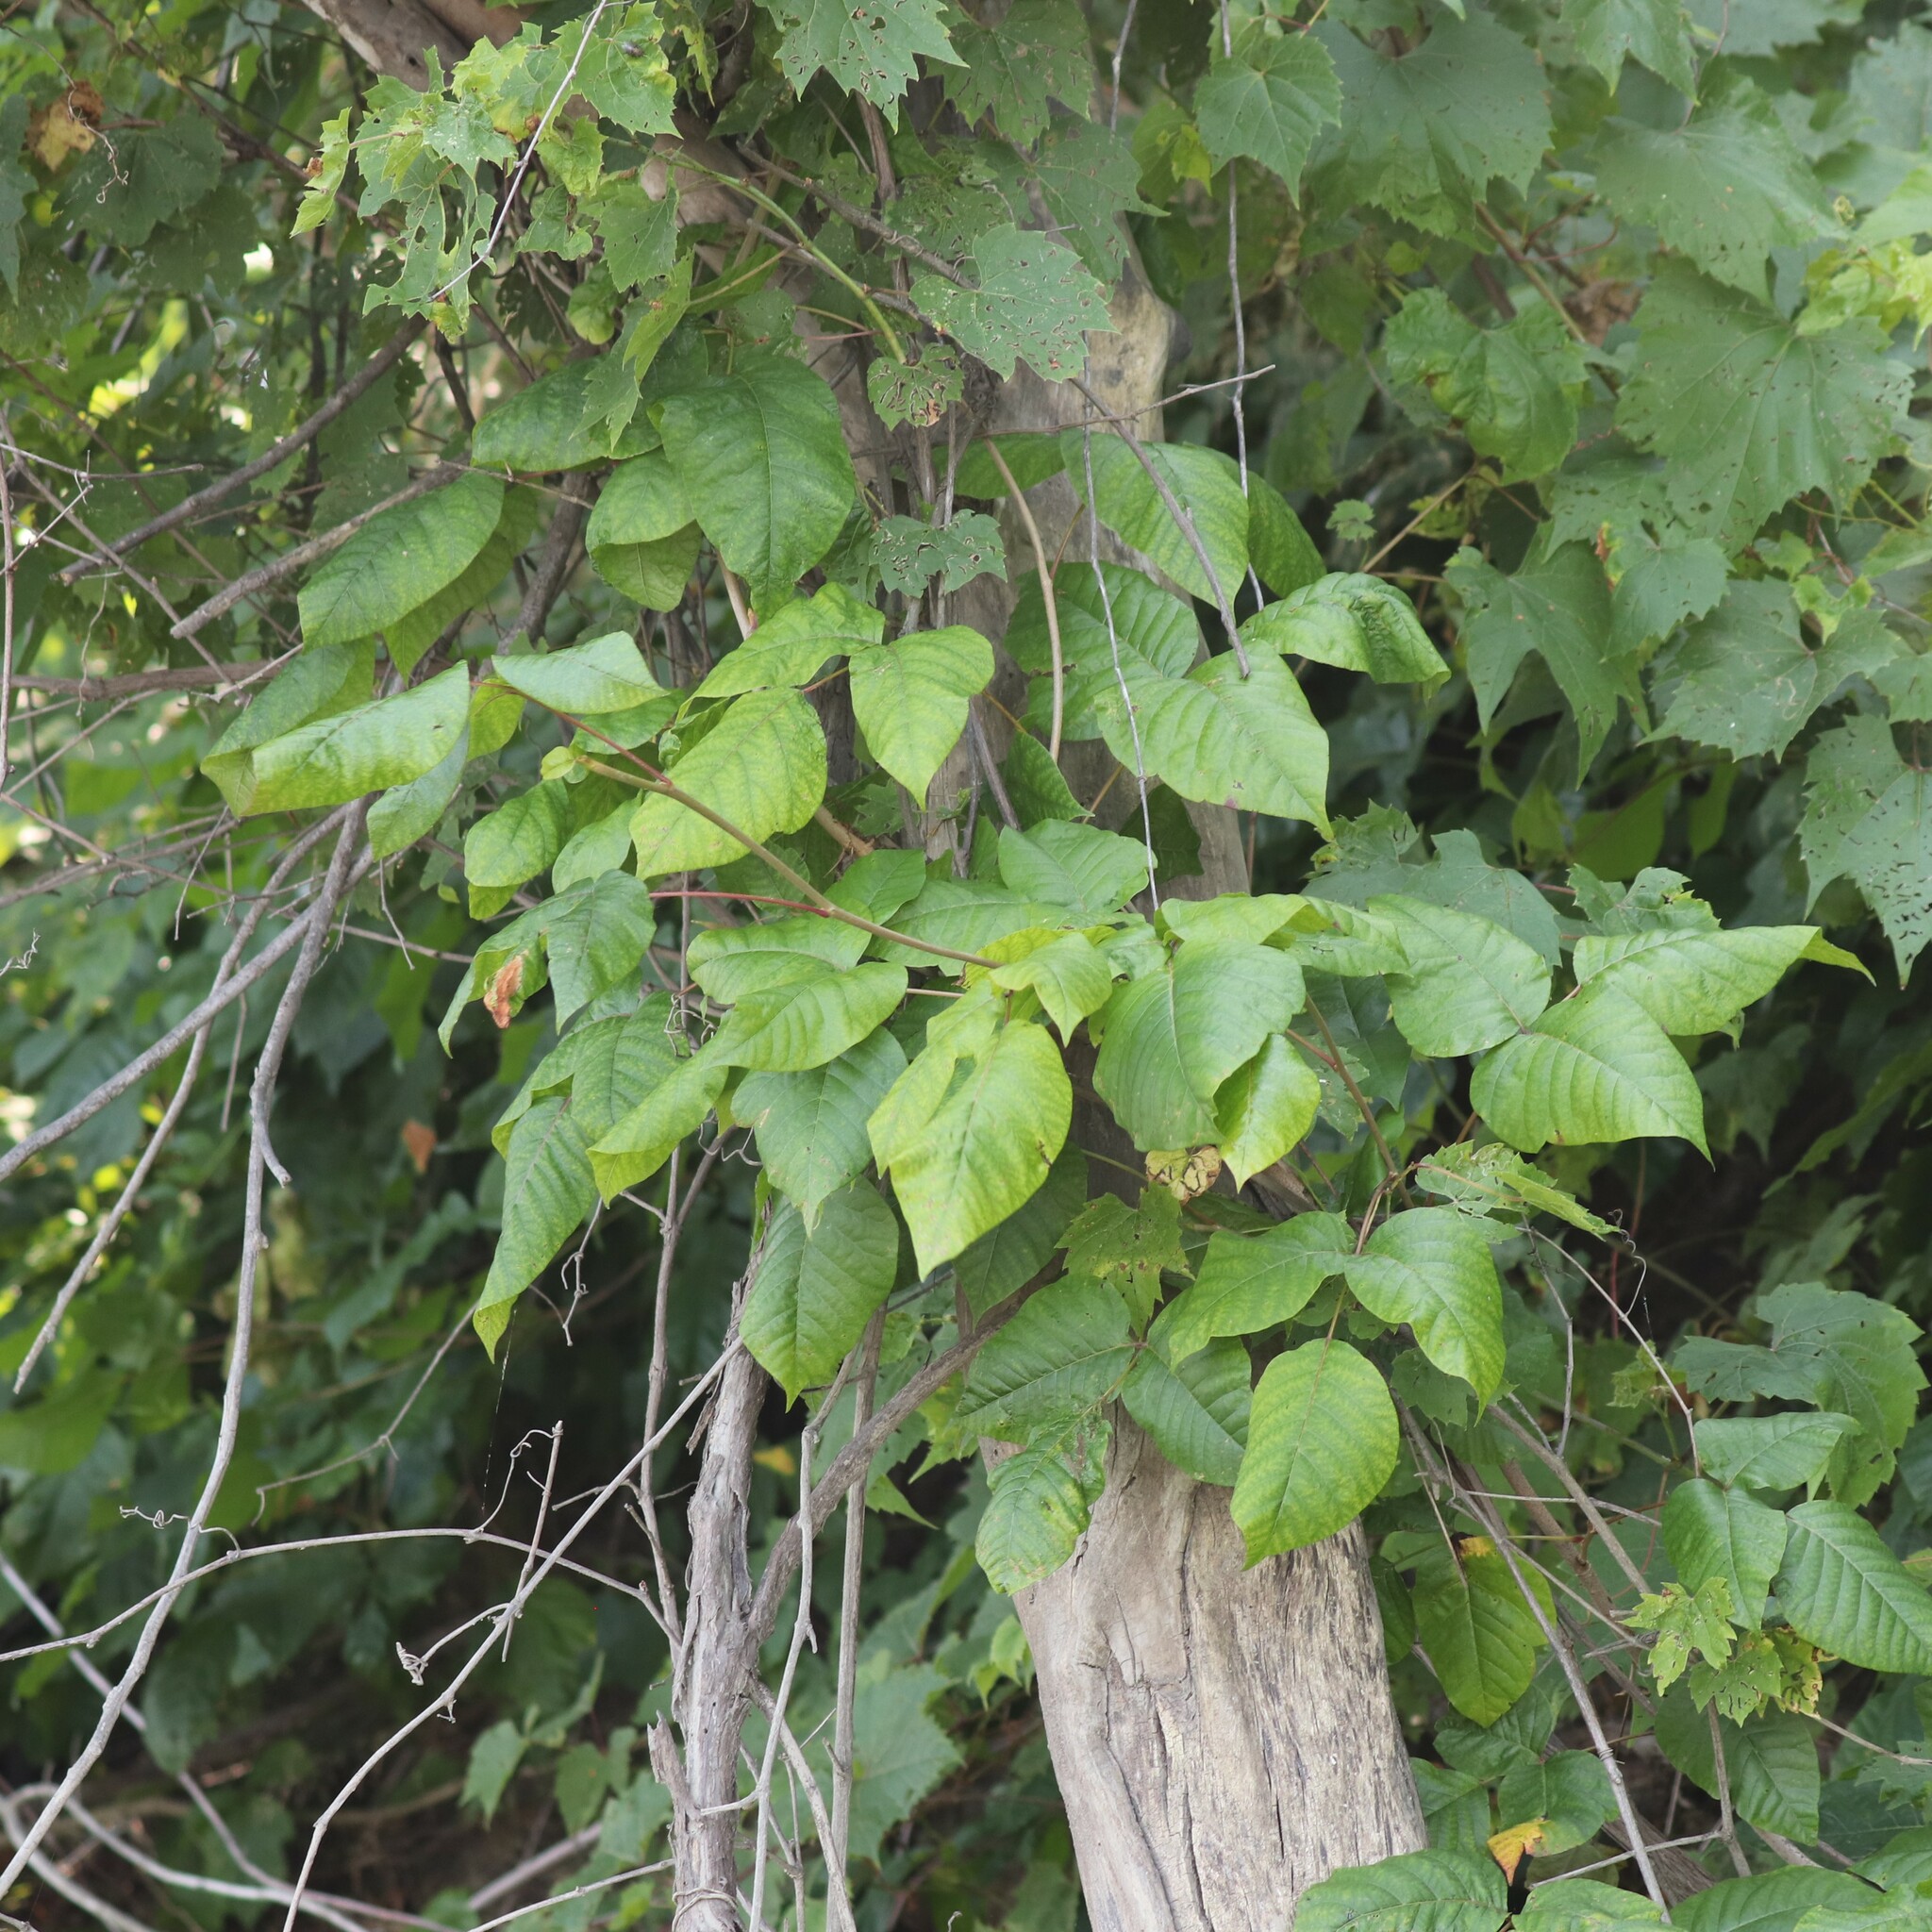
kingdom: Plantae
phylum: Tracheophyta
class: Magnoliopsida
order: Sapindales
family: Anacardiaceae
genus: Toxicodendron
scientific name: Toxicodendron radicans
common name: Poison ivy
